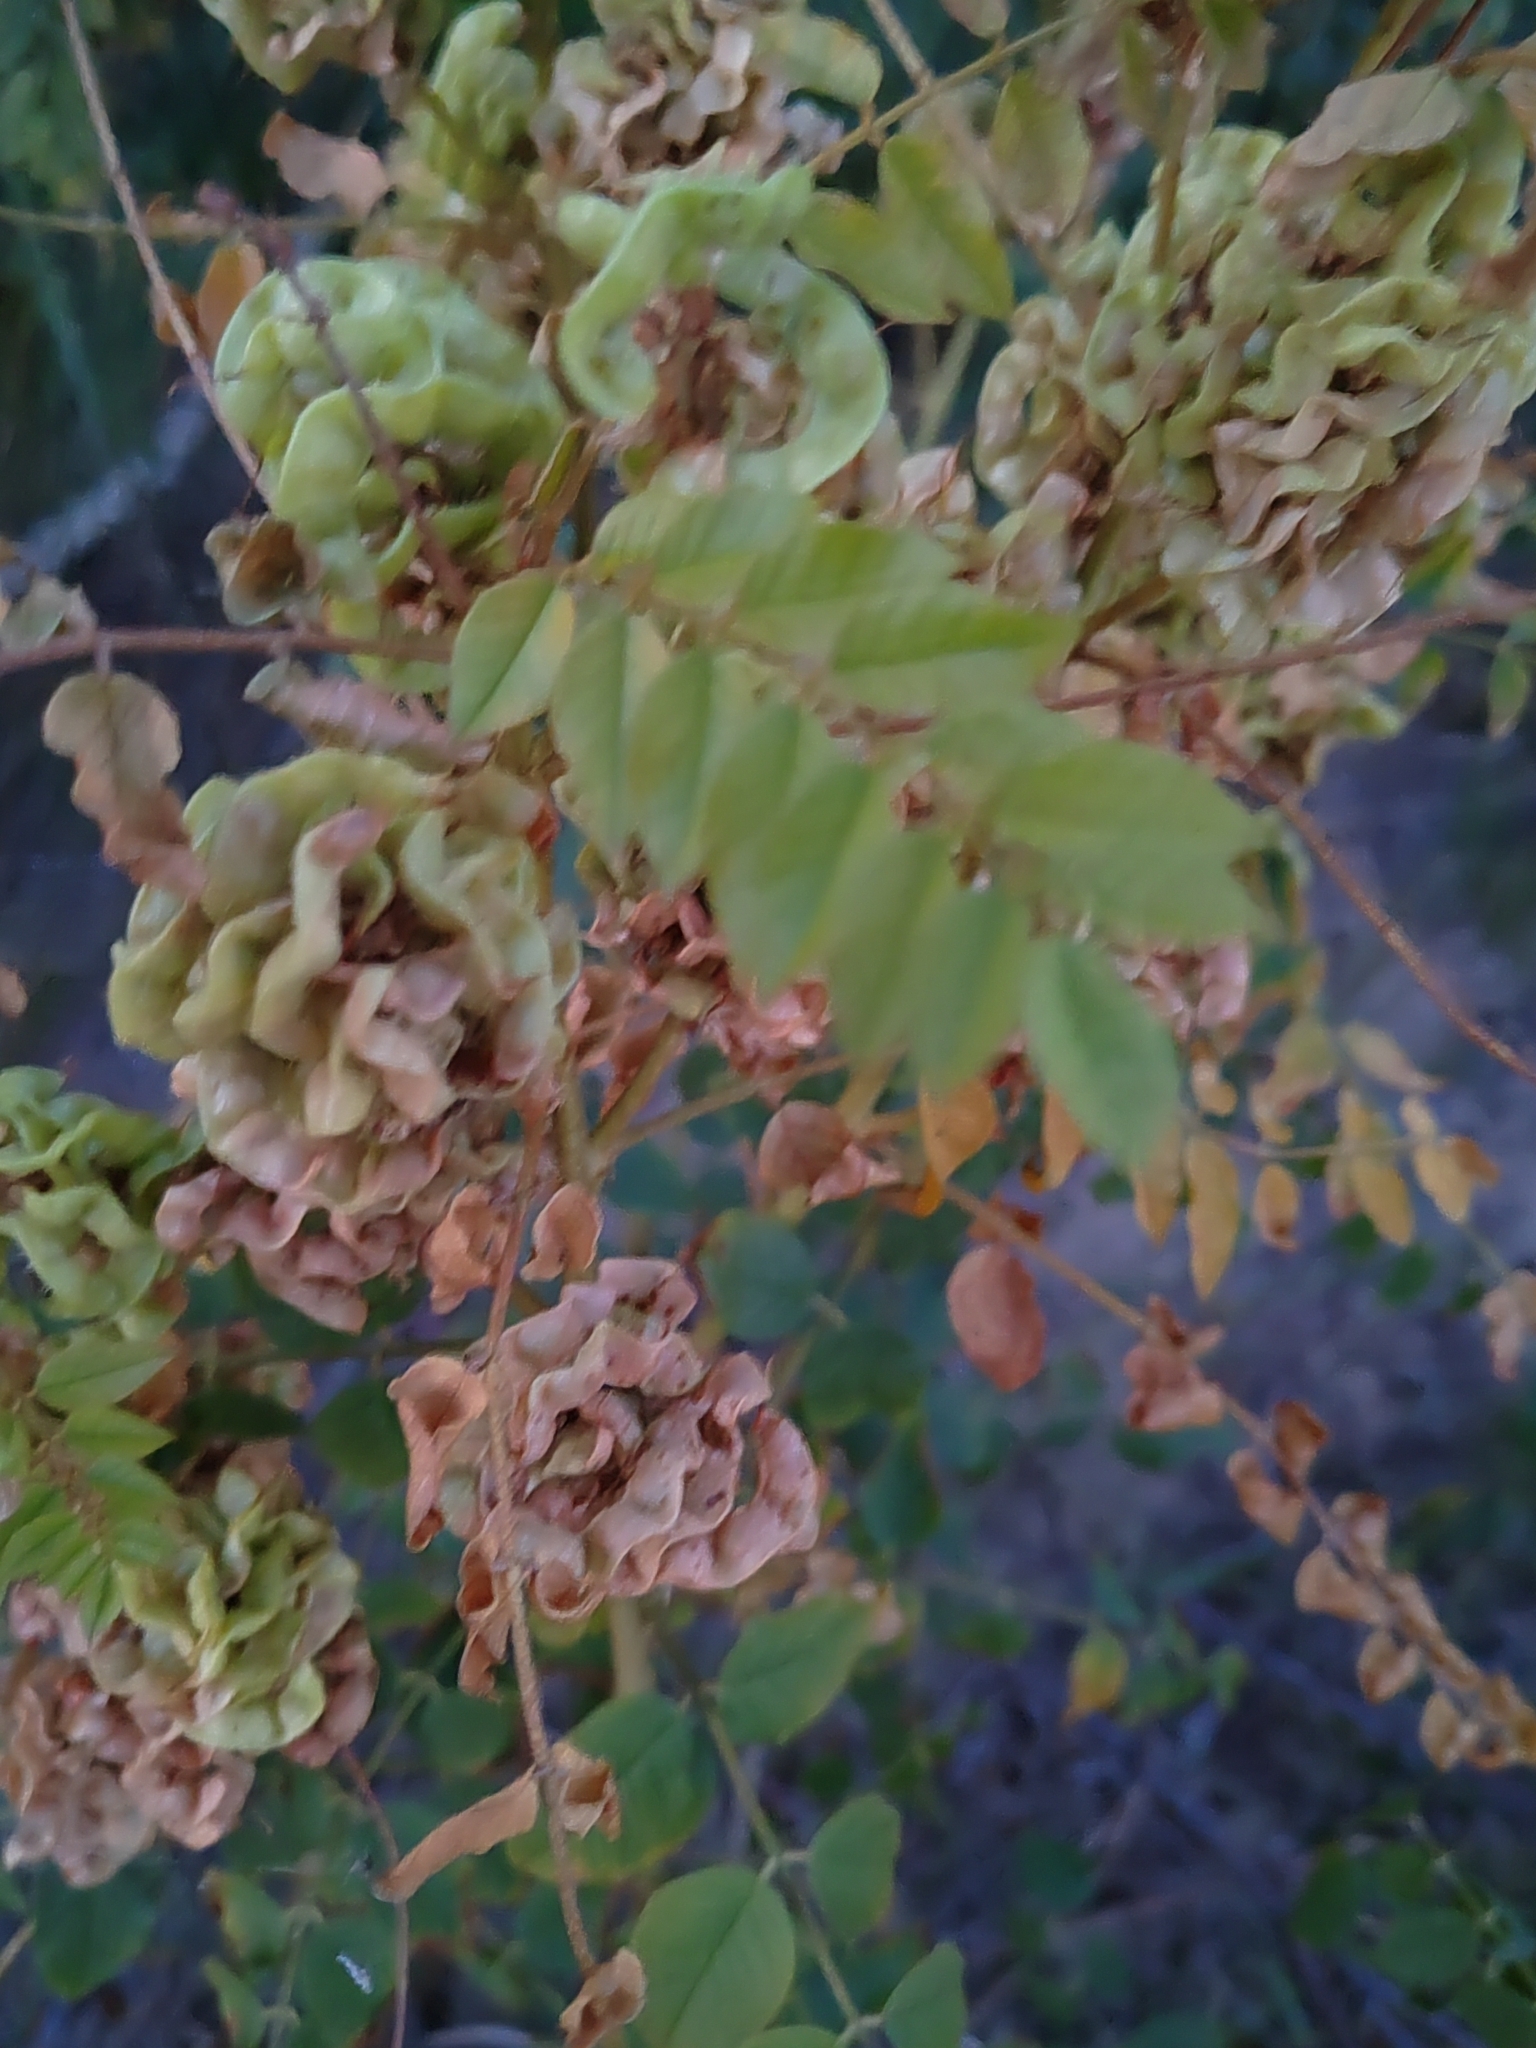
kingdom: Plantae
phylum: Tracheophyta
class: Magnoliopsida
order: Fabales
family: Fabaceae
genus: Glycyrrhiza
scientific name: Glycyrrhiza uralensis
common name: Chinese licorice
